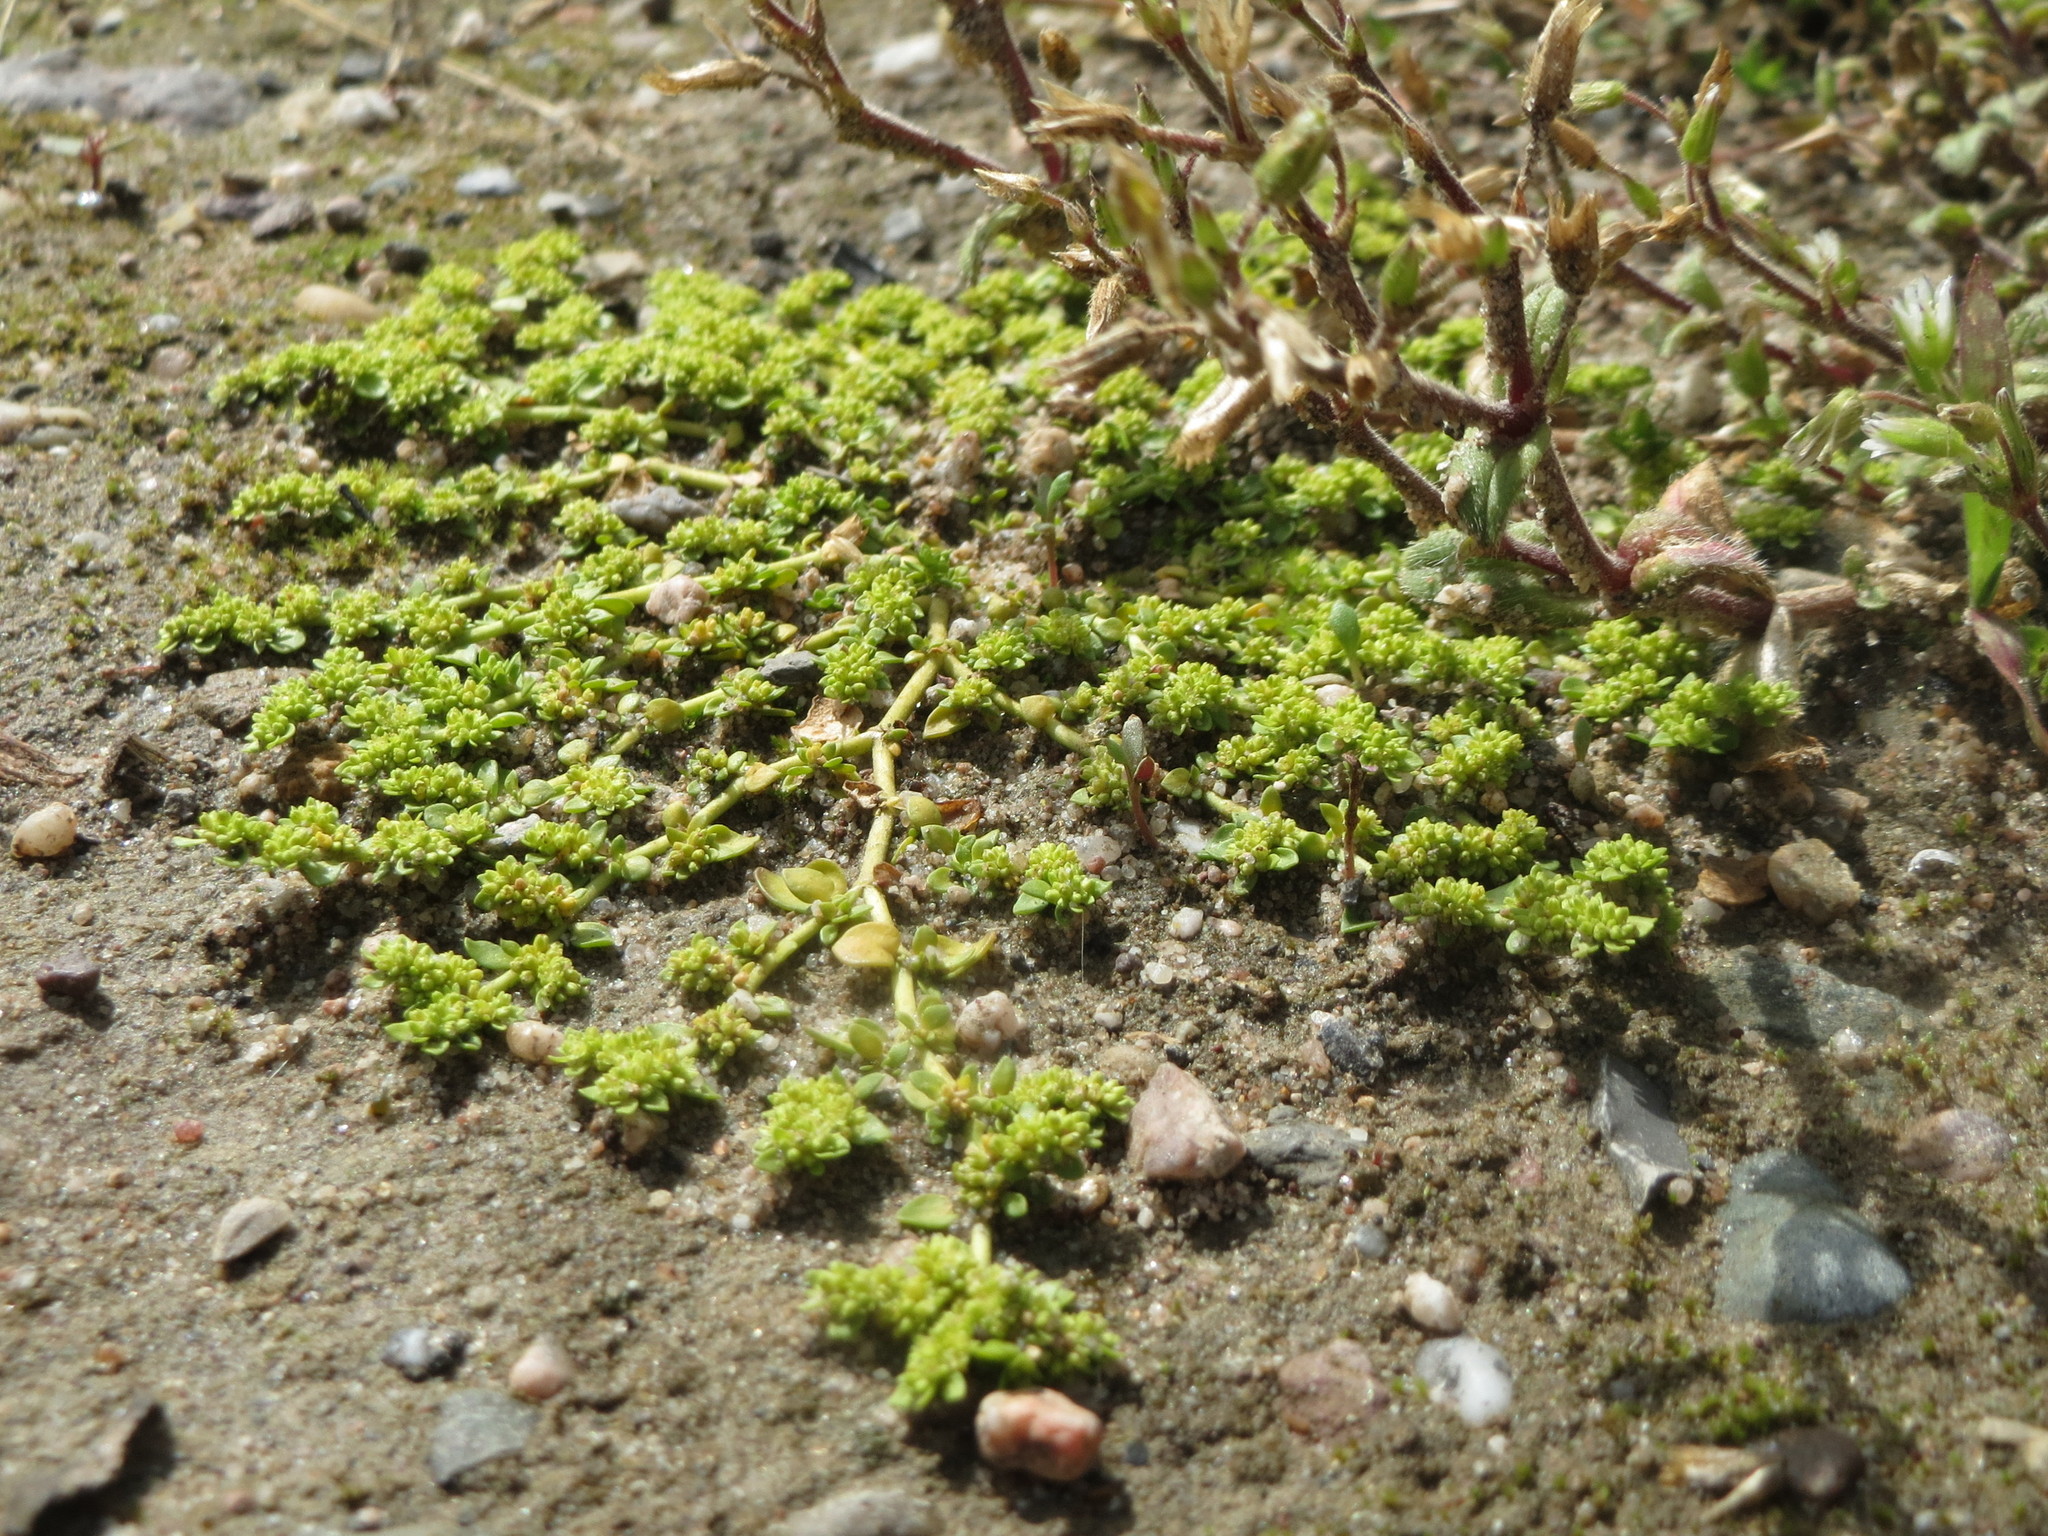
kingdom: Plantae
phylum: Tracheophyta
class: Magnoliopsida
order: Caryophyllales
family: Caryophyllaceae
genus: Herniaria
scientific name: Herniaria glabra
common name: Smooth rupturewort
